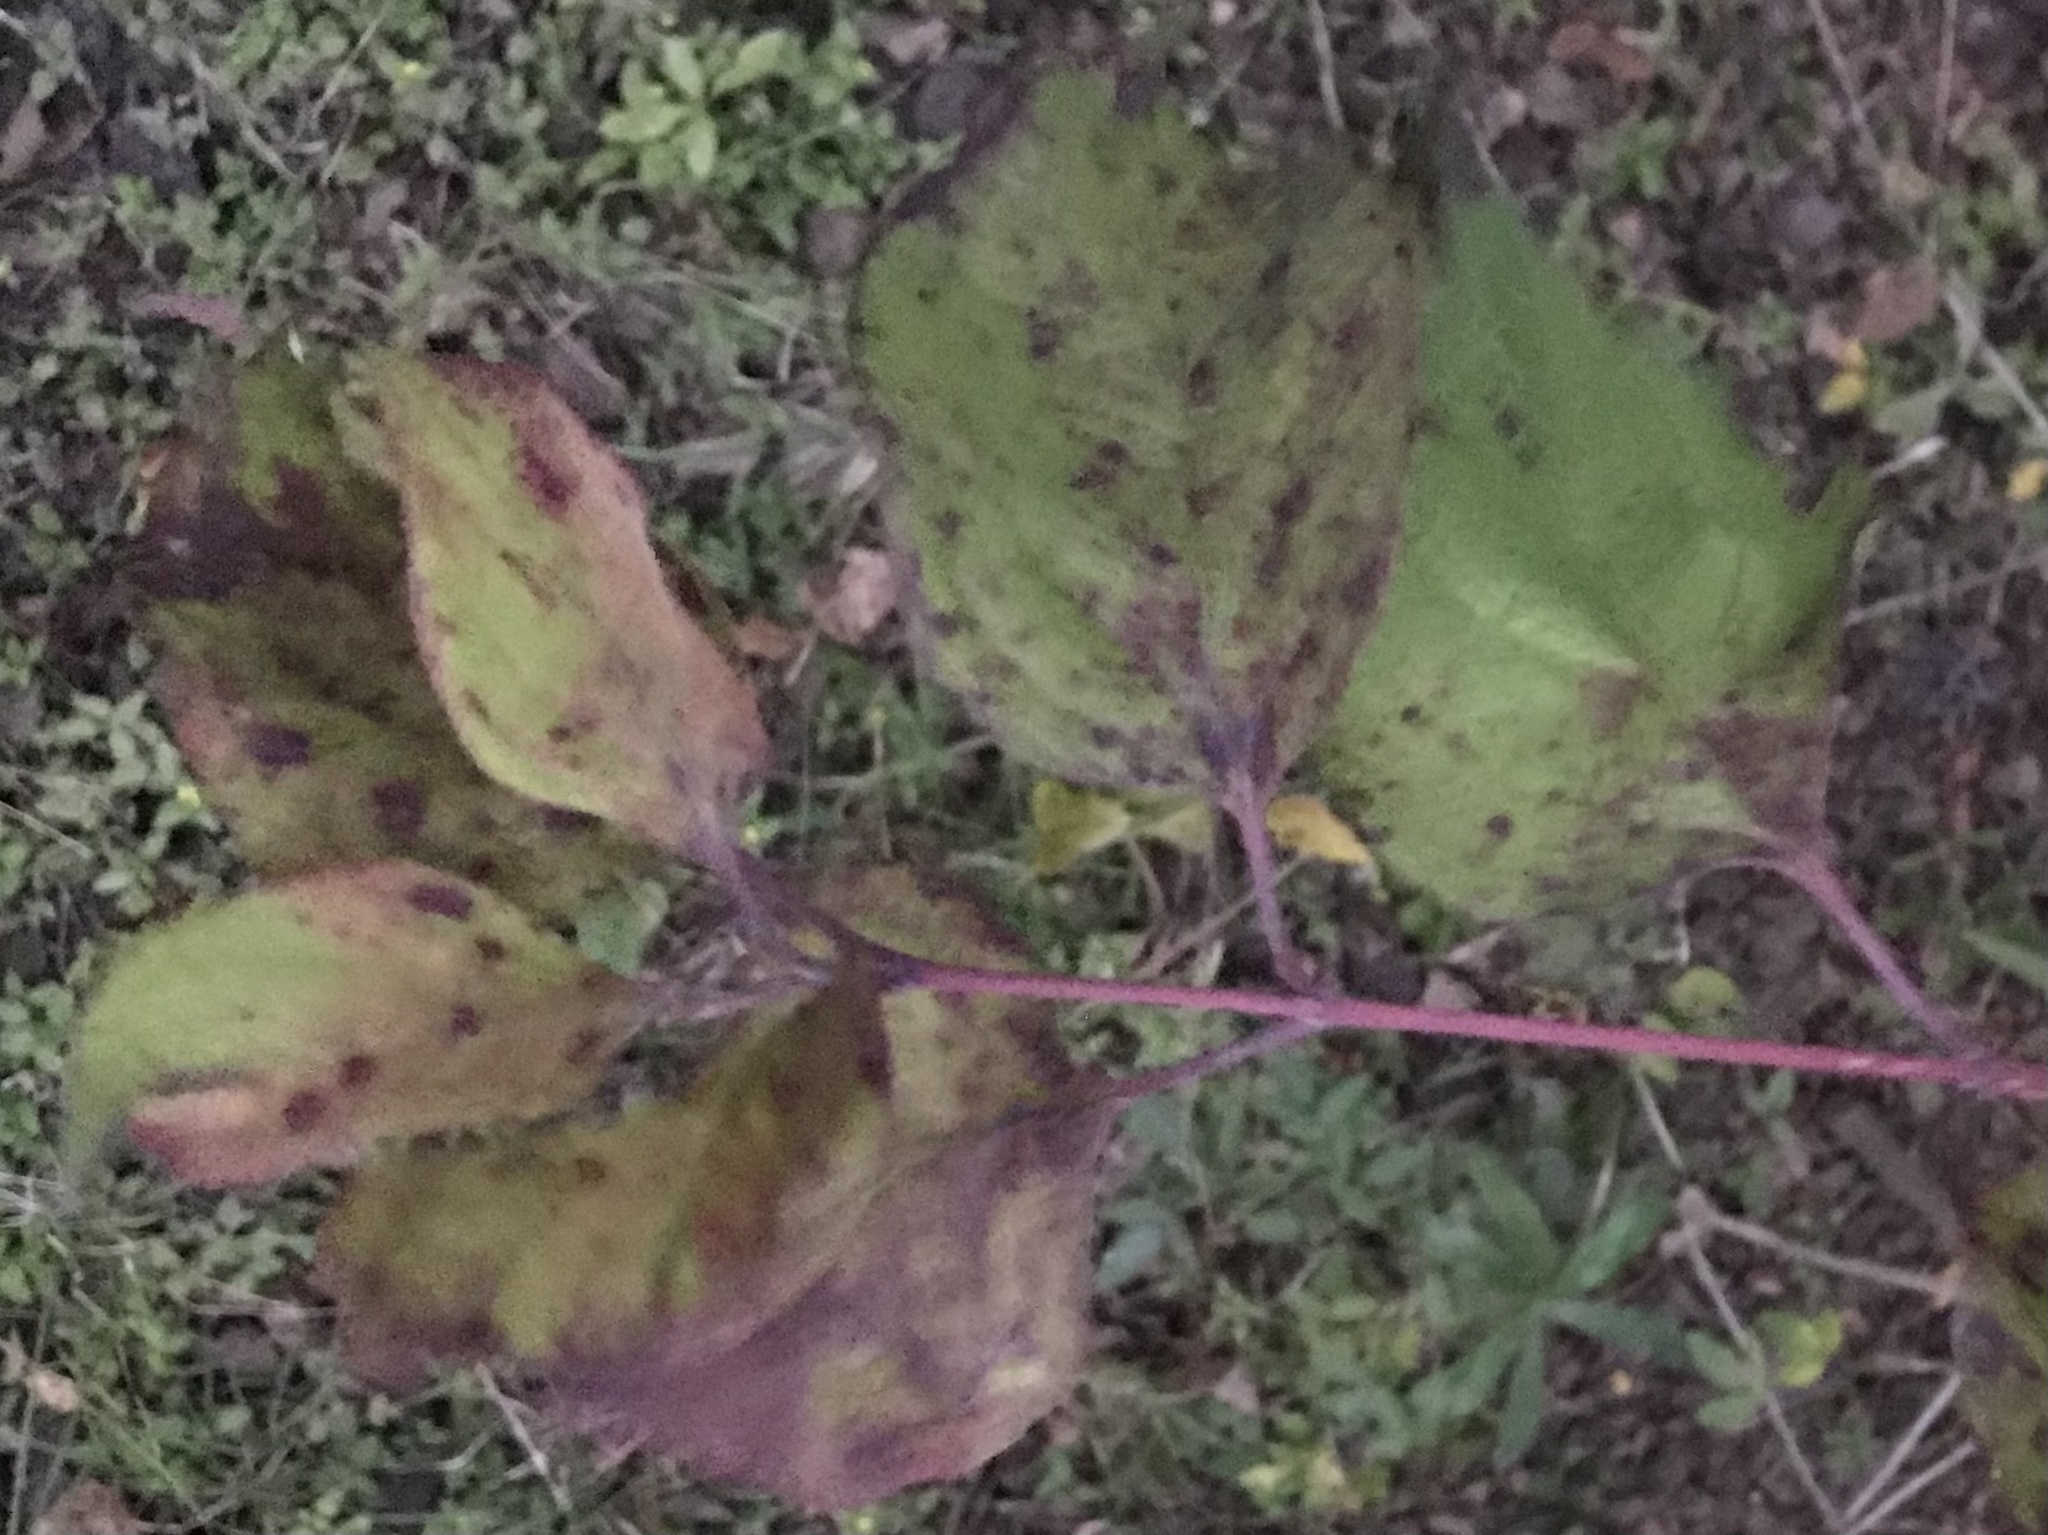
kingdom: Plantae
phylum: Tracheophyta
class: Magnoliopsida
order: Cornales
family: Cornaceae
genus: Cornus
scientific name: Cornus drummondii
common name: Rough-leaf dogwood
